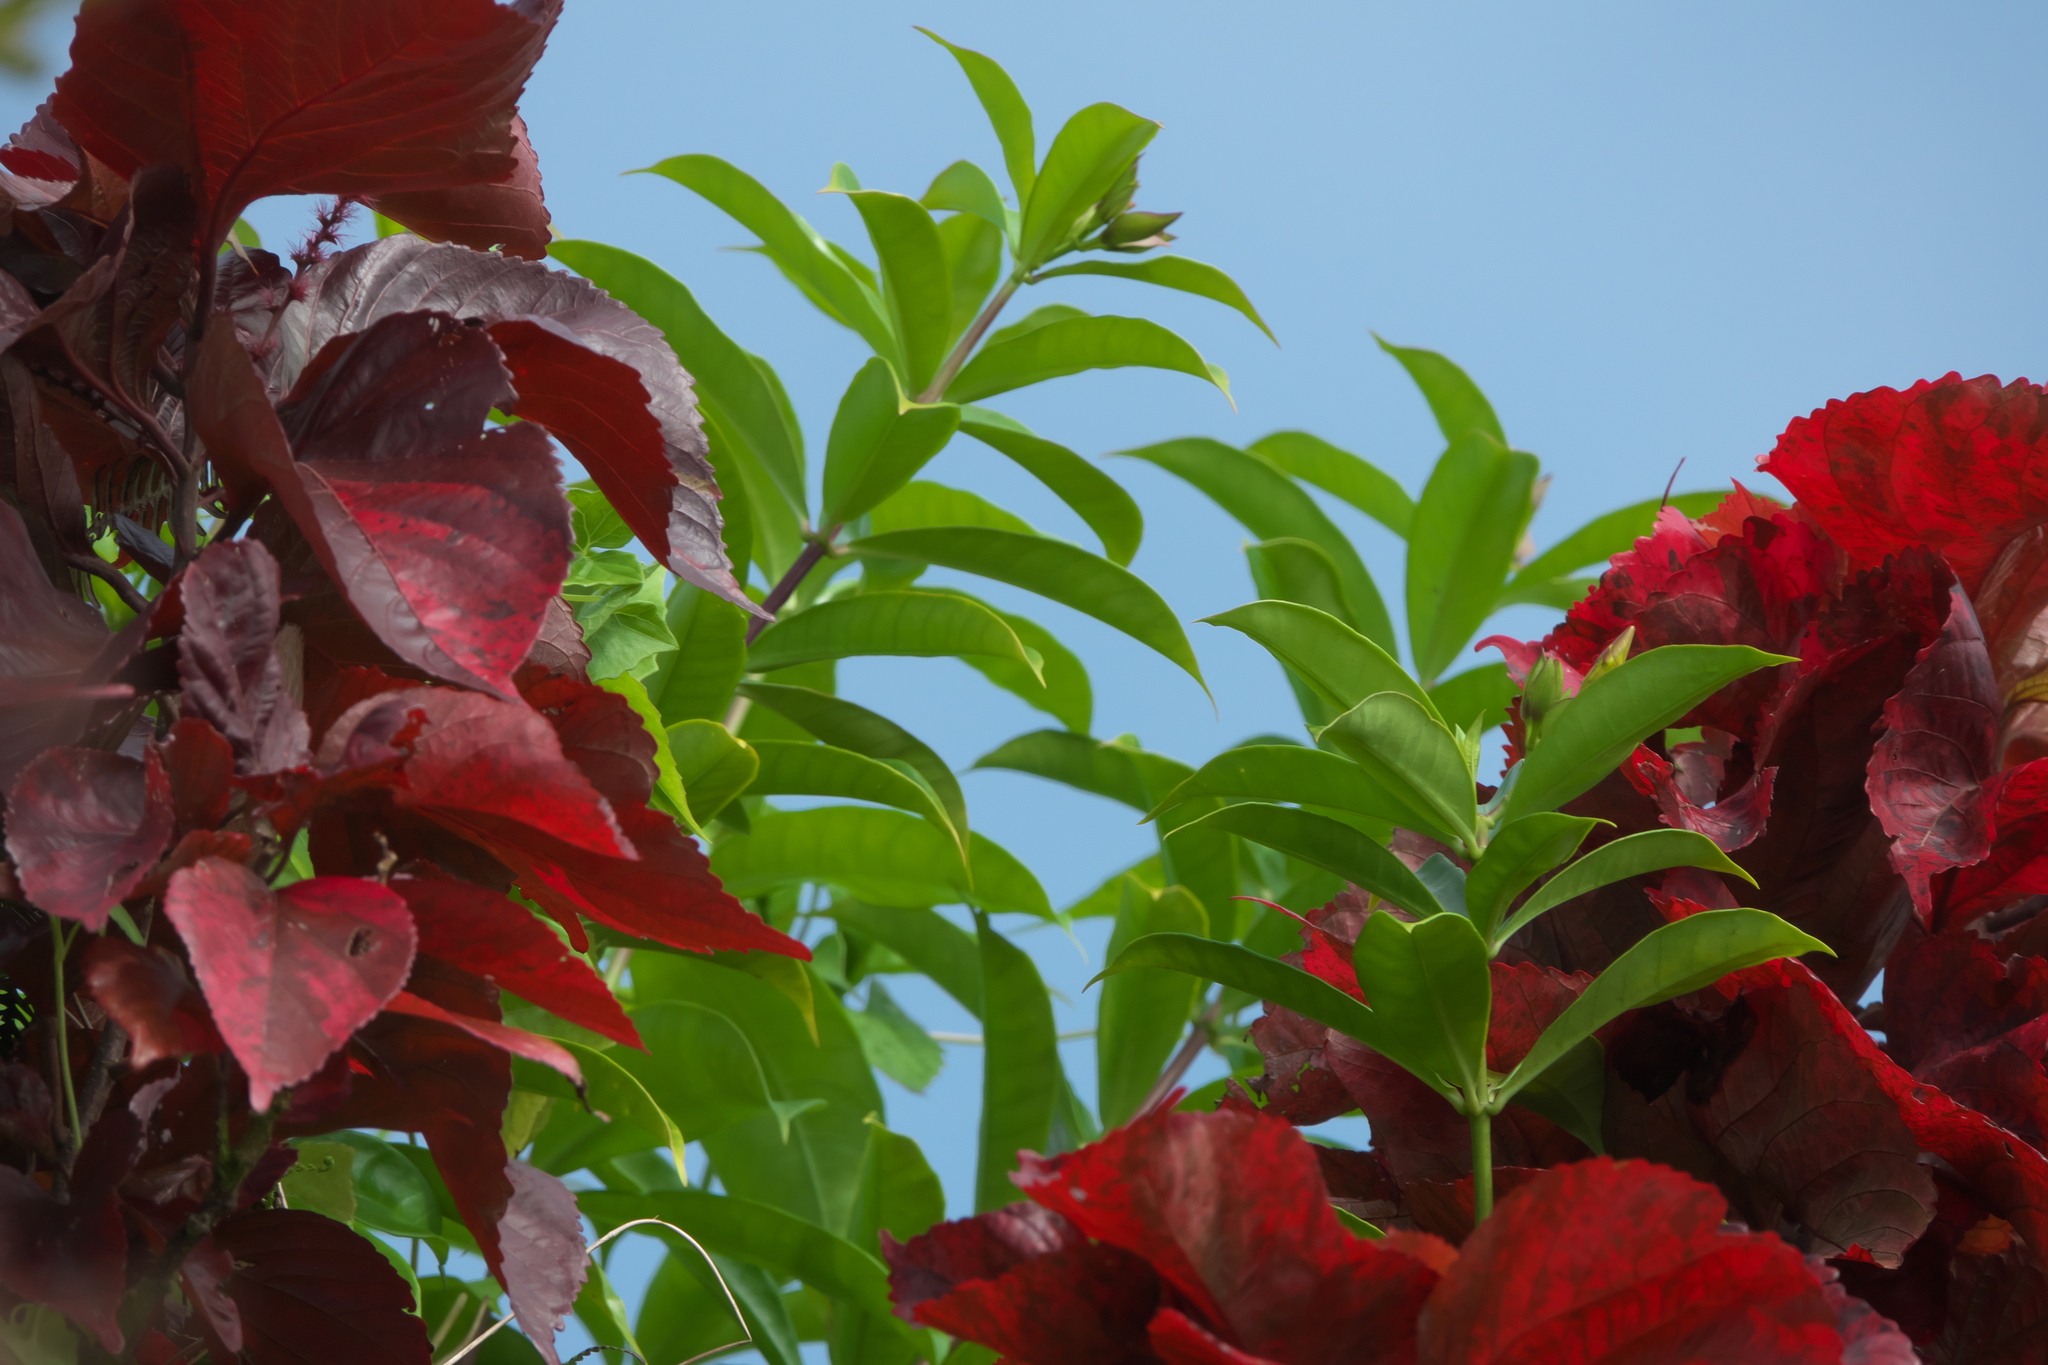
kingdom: Plantae
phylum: Tracheophyta
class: Magnoliopsida
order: Malpighiales
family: Euphorbiaceae
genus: Acalypha
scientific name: Acalypha wilkesiana
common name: Jacob's coat
